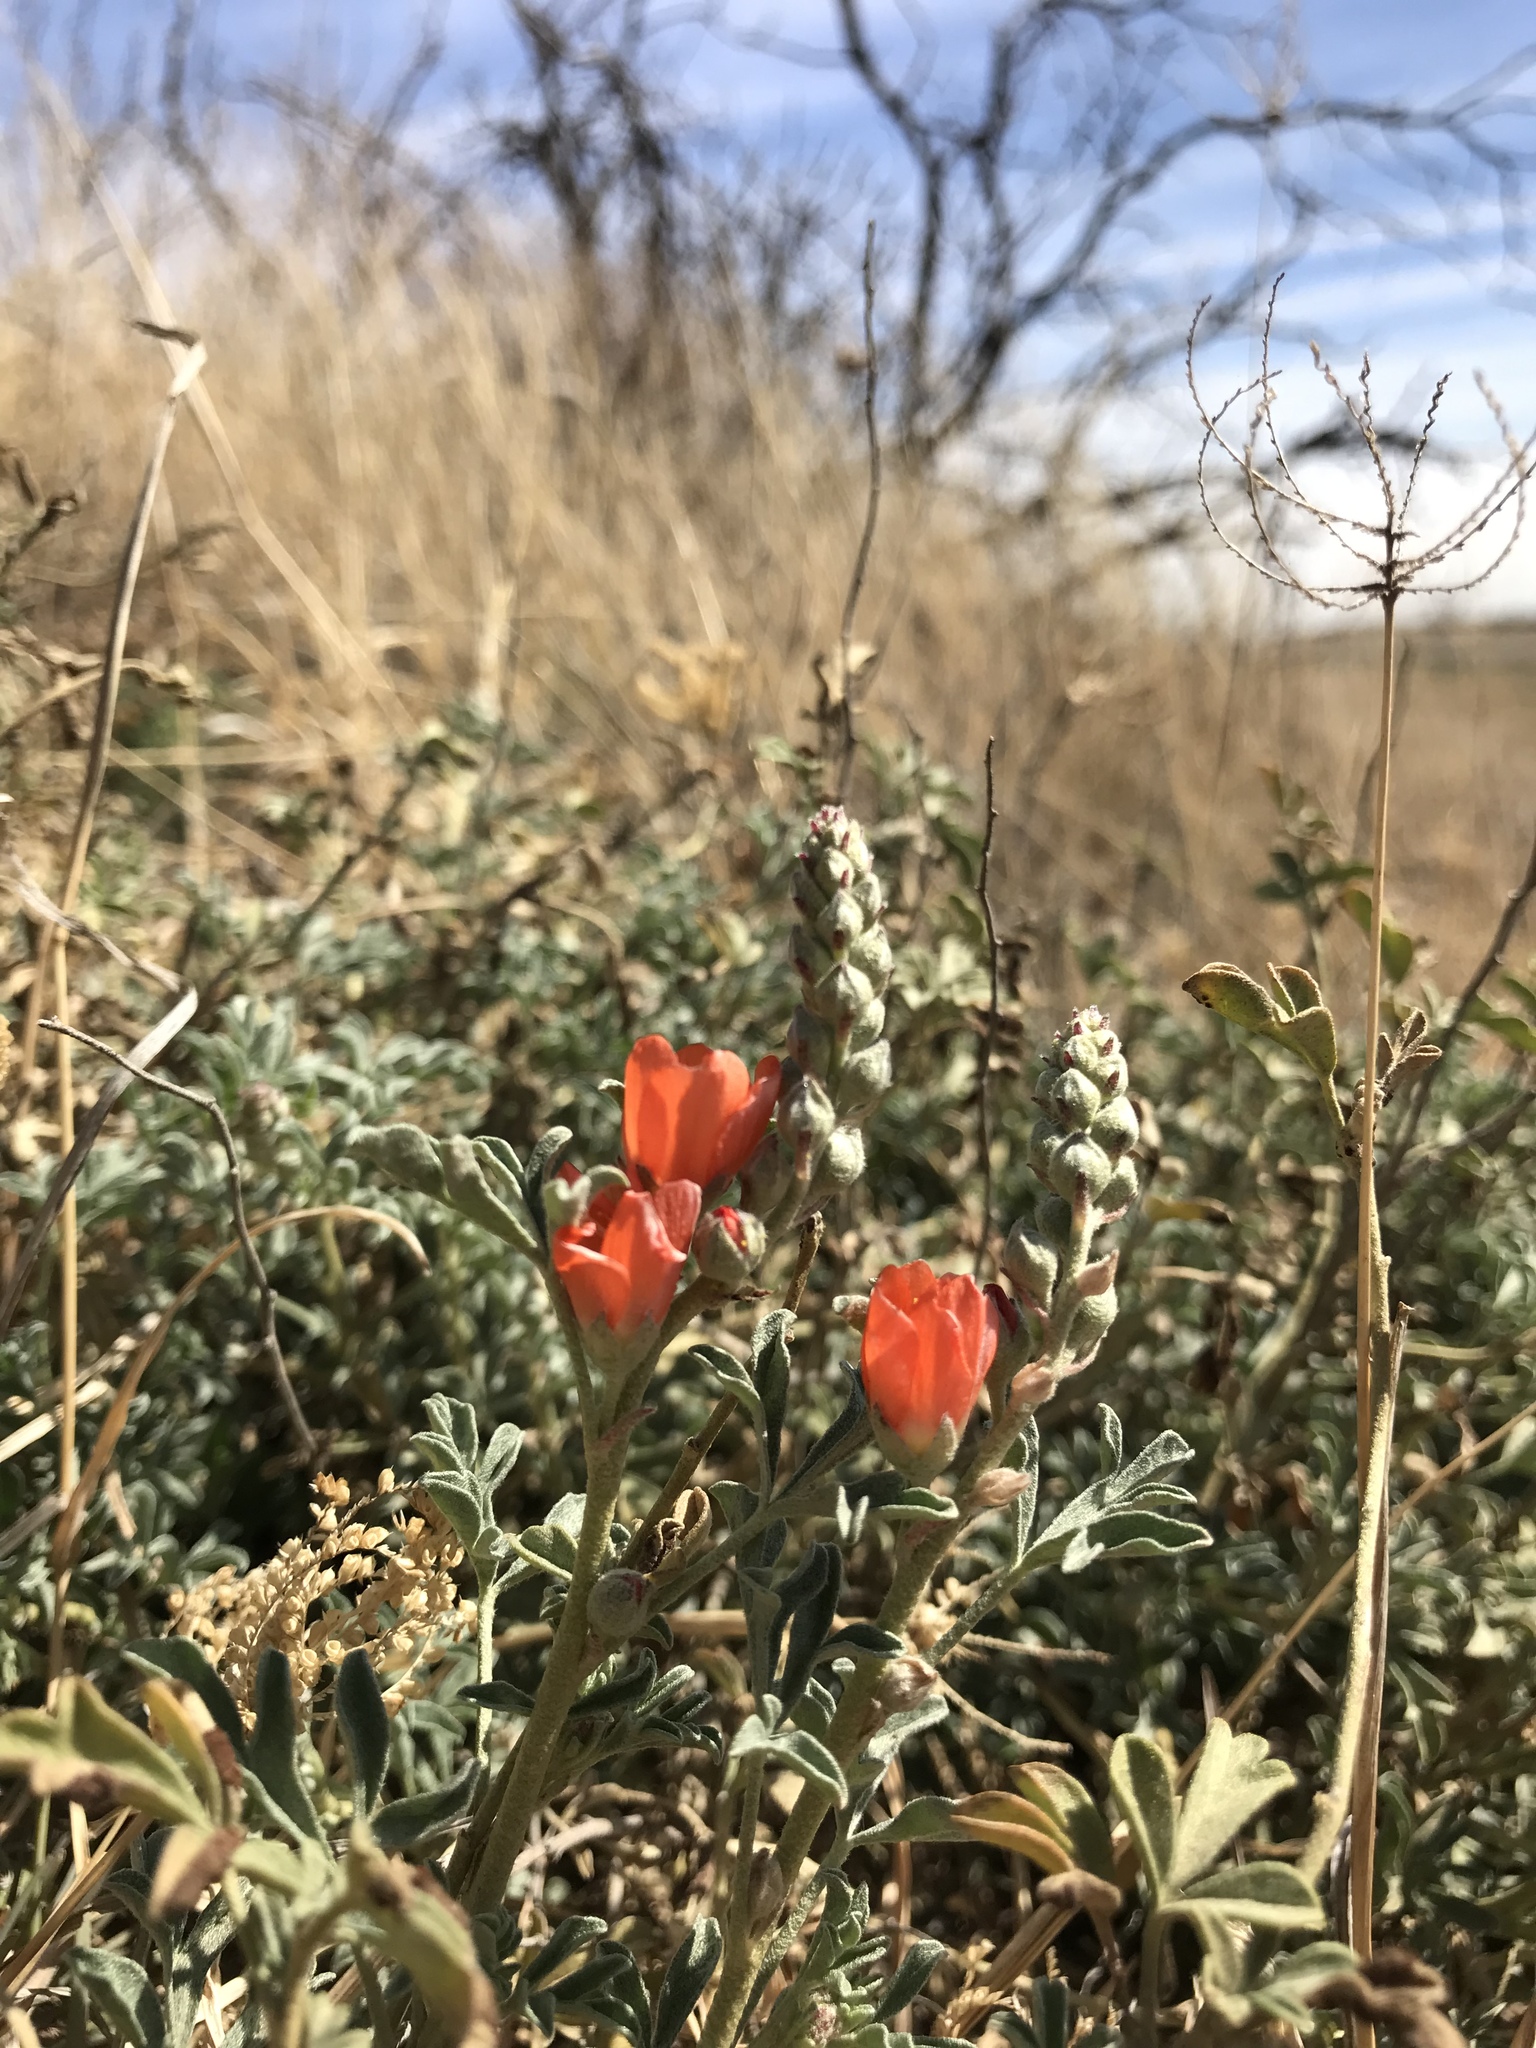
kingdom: Plantae
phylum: Tracheophyta
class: Magnoliopsida
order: Malvales
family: Malvaceae
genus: Sphaeralcea
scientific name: Sphaeralcea coccinea
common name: Moss-rose
